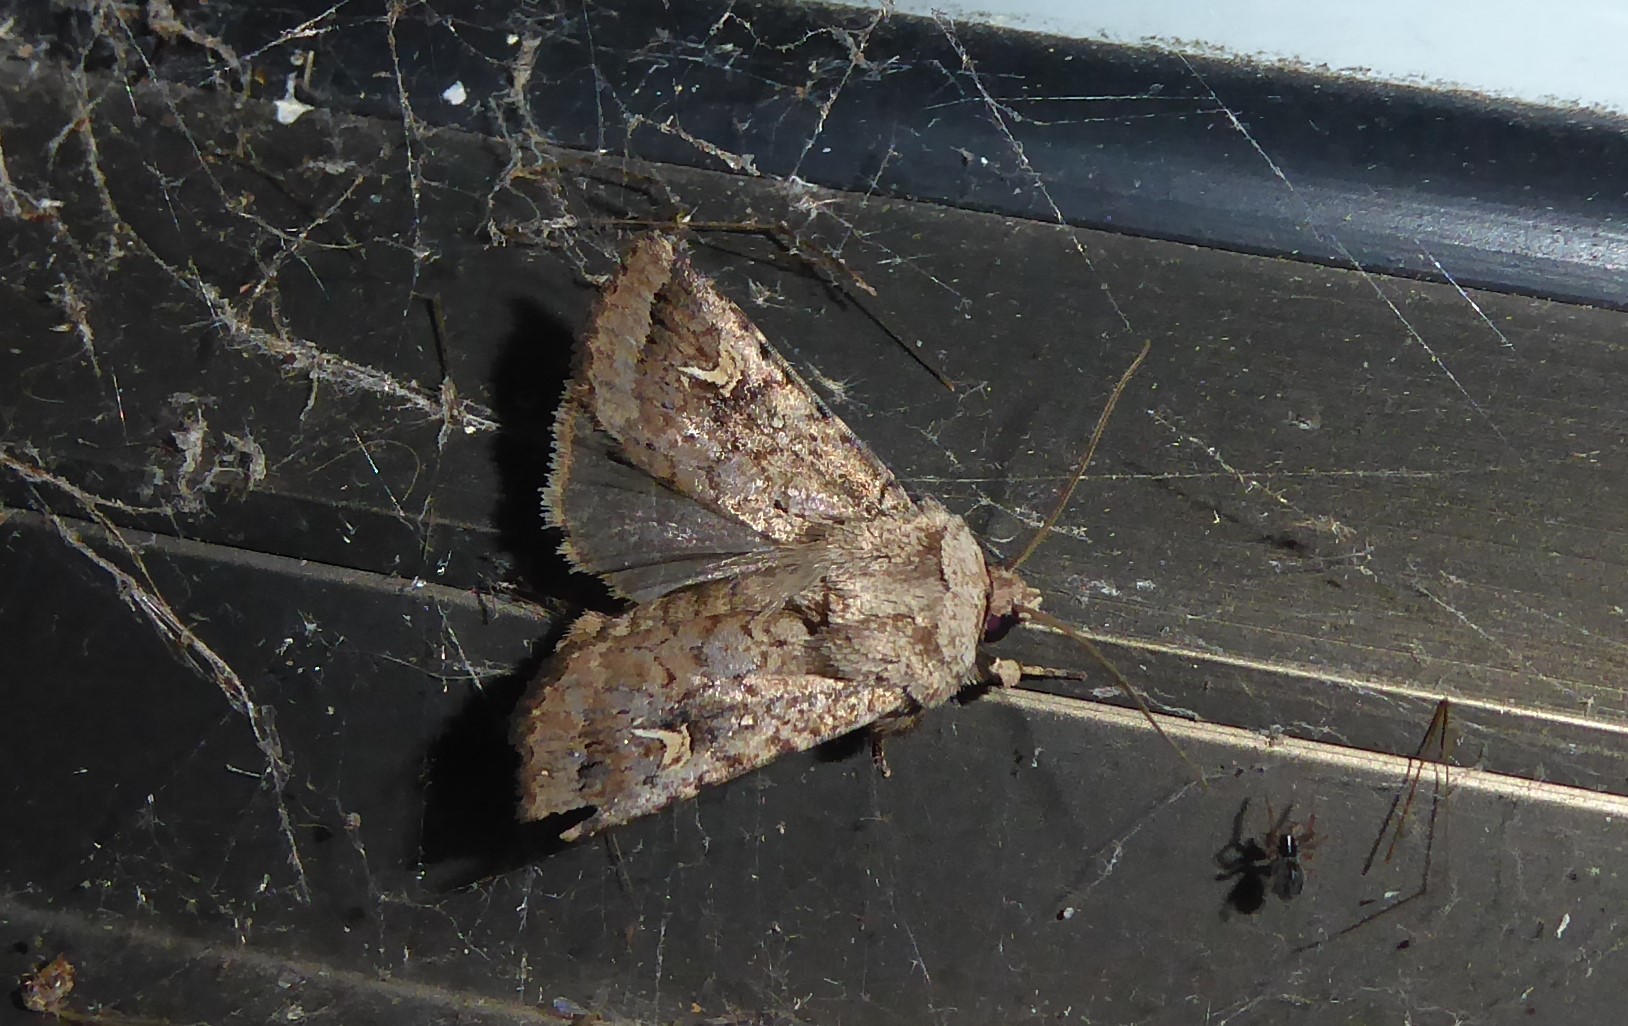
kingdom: Animalia
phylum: Arthropoda
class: Insecta
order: Lepidoptera
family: Noctuidae
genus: Proteuxoa
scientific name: Proteuxoa tetronycha
